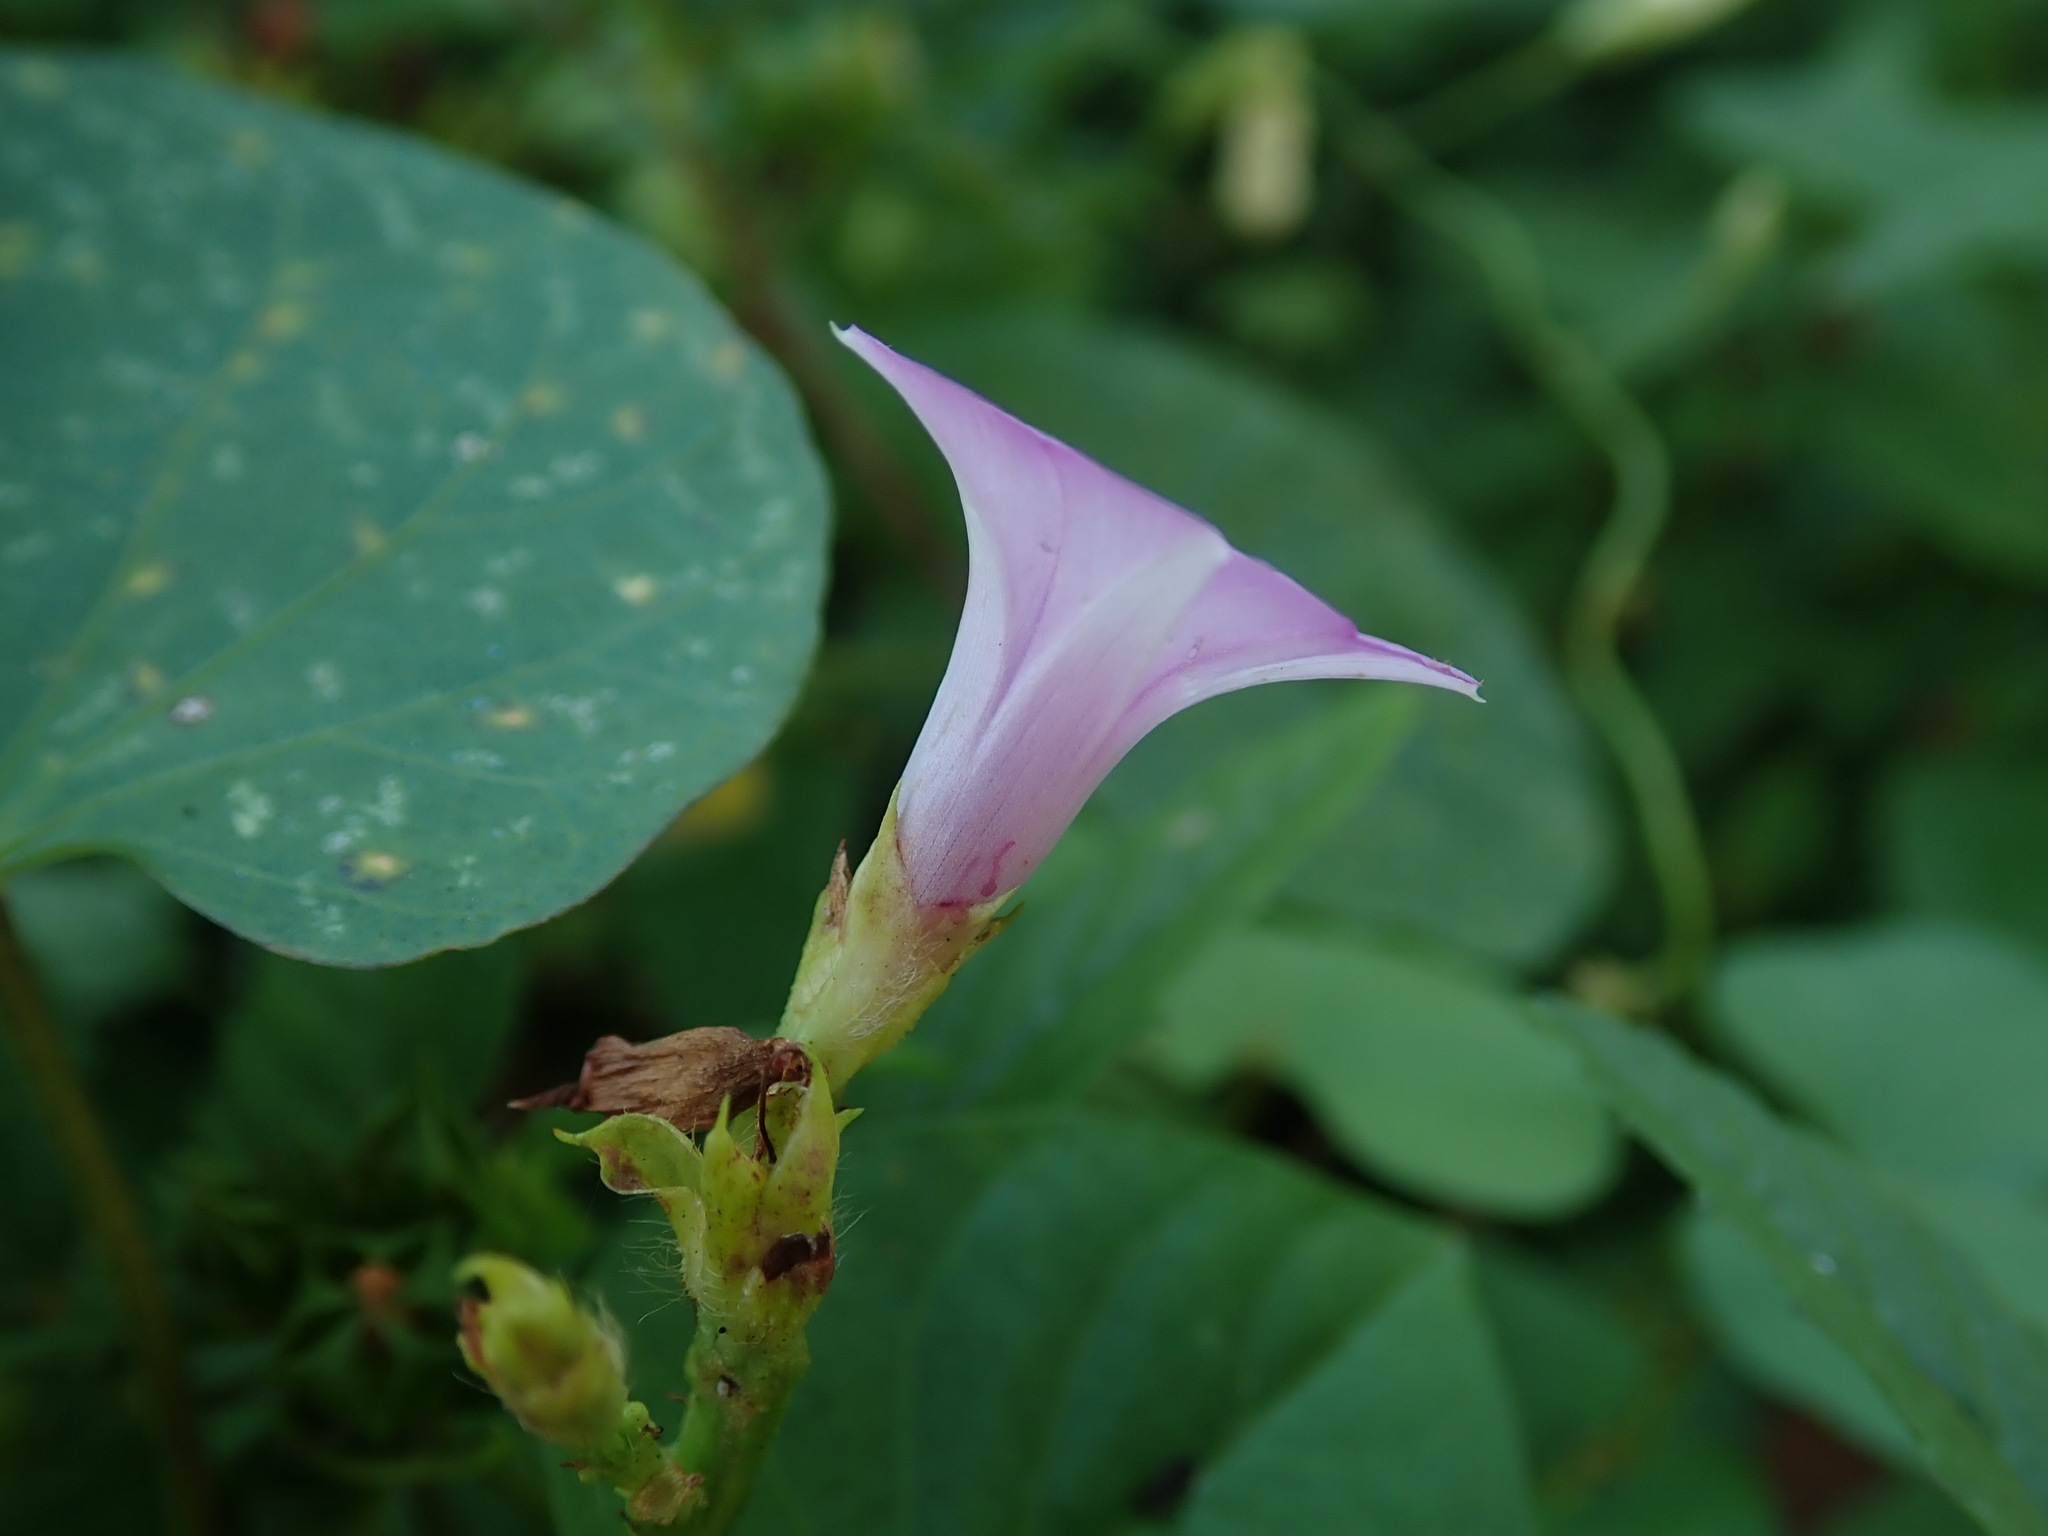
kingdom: Plantae
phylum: Tracheophyta
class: Magnoliopsida
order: Solanales
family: Convolvulaceae
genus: Ipomoea
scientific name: Ipomoea triloba
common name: Little-bell
